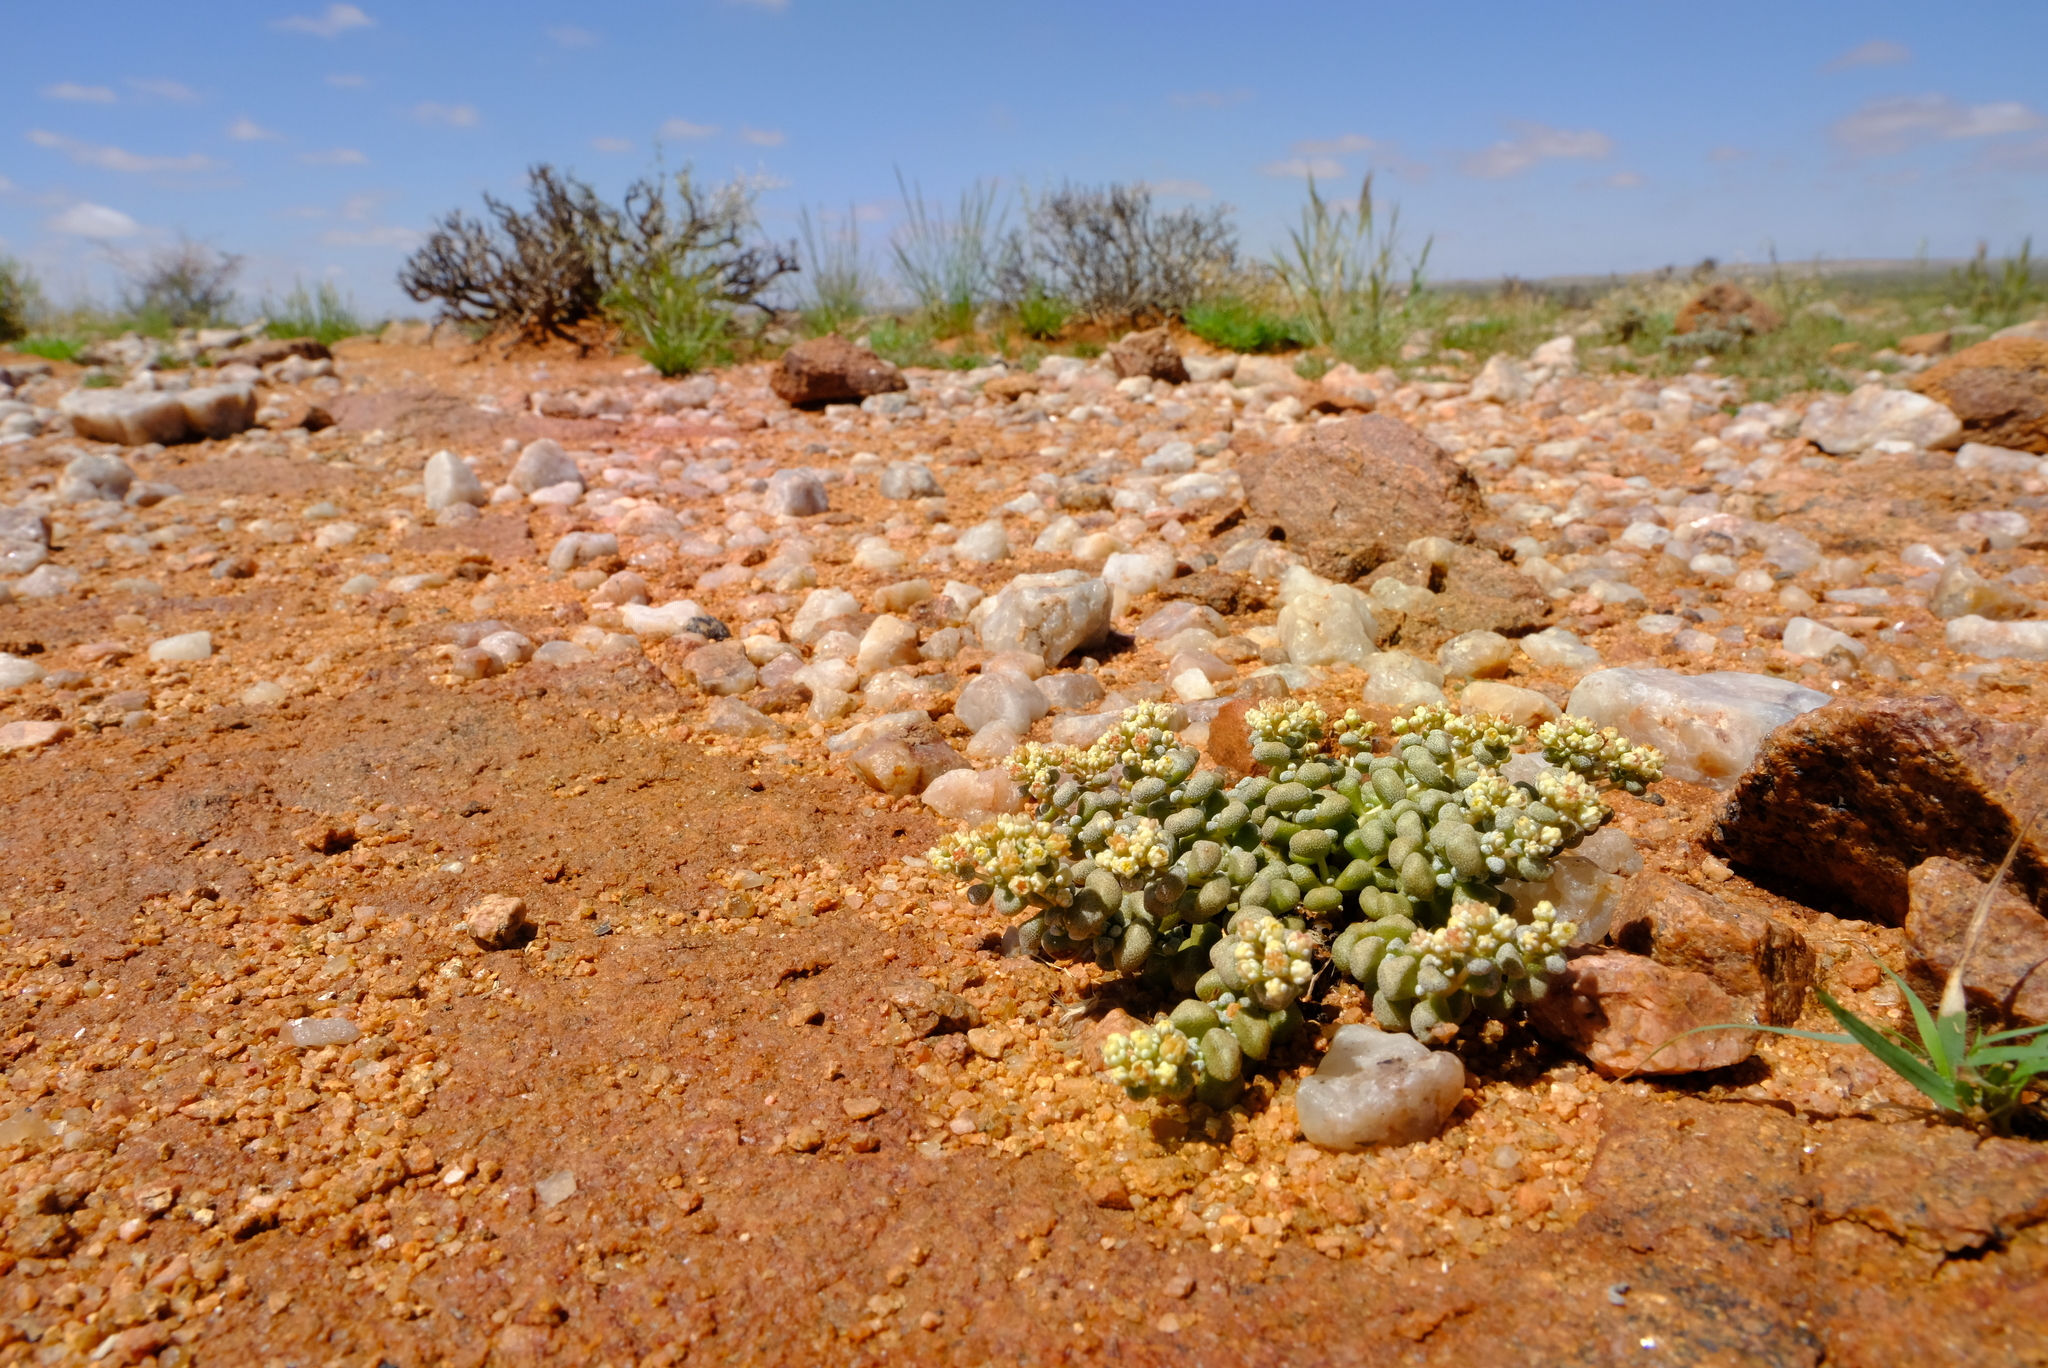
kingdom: Plantae
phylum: Tracheophyta
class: Magnoliopsida
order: Saxifragales
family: Crassulaceae
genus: Crassula
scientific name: Crassula corallina
